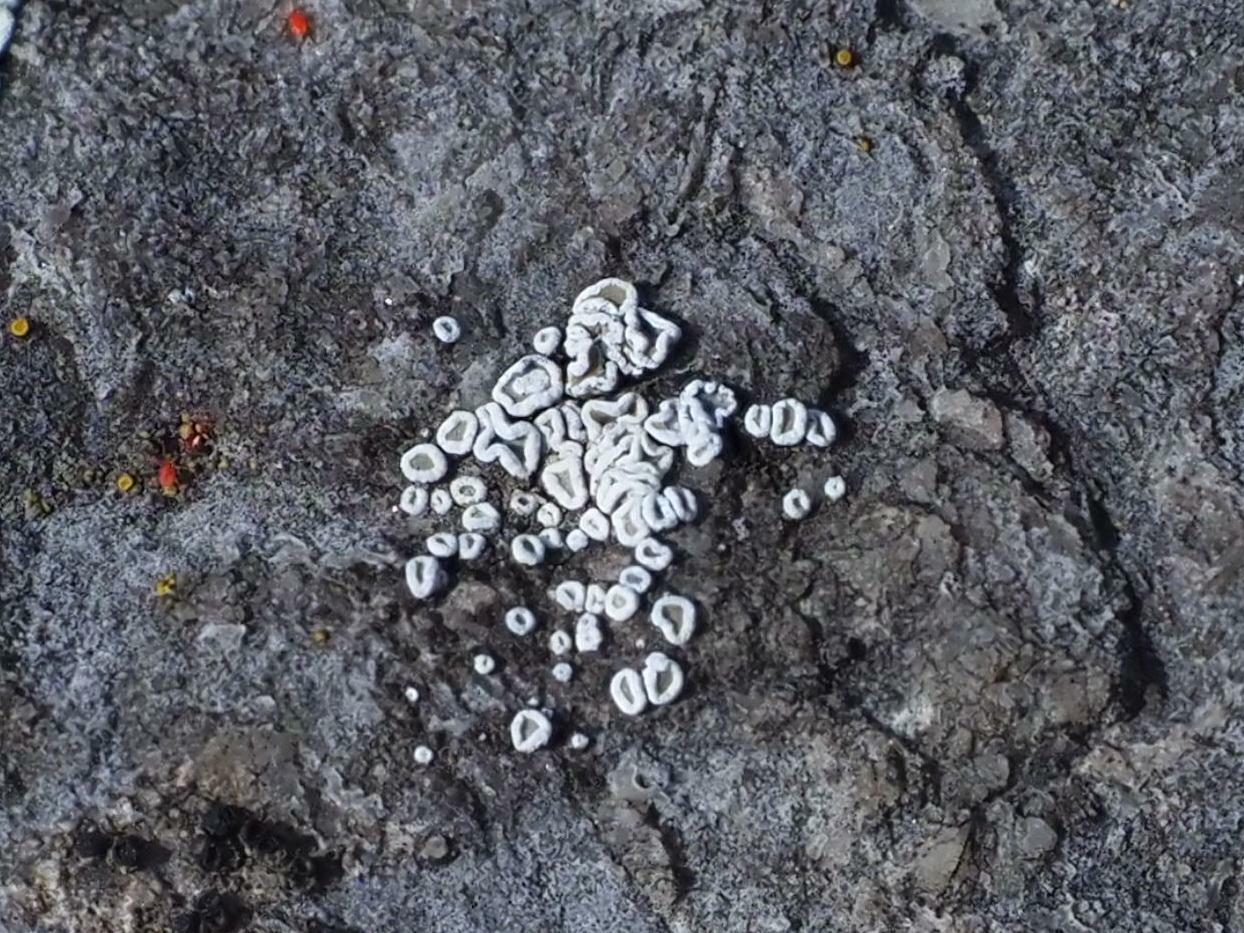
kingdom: Fungi
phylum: Ascomycota
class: Lecanoromycetes
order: Lecanorales
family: Lecanoraceae
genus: Polyozosia
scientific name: Polyozosia dispersa
